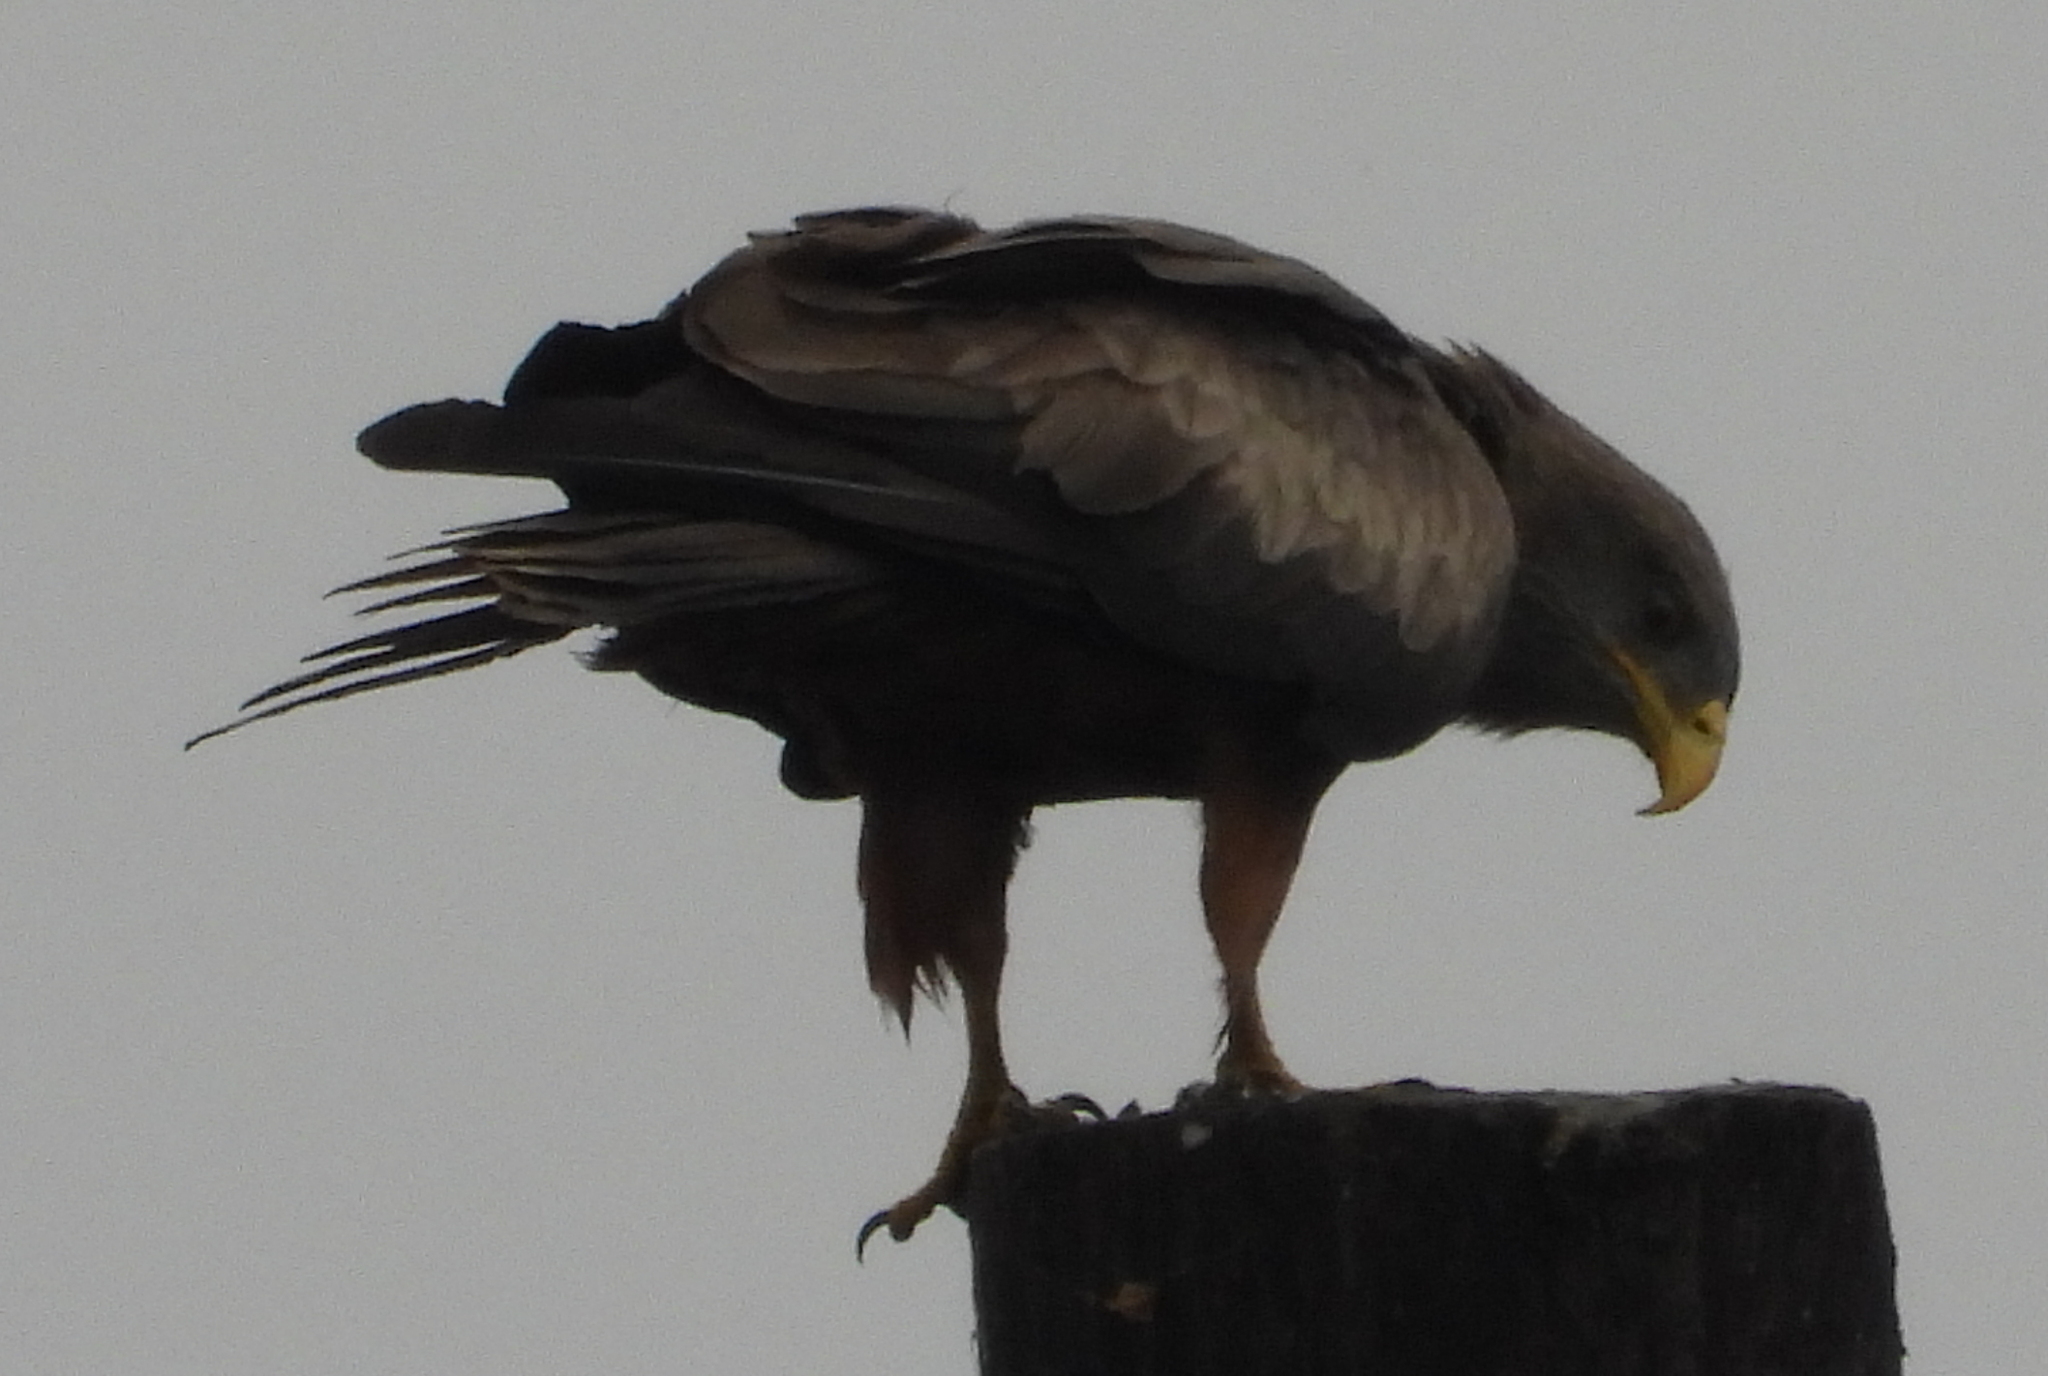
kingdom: Animalia
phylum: Chordata
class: Aves
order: Accipitriformes
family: Accipitridae
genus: Milvus
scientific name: Milvus migrans
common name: Black kite
